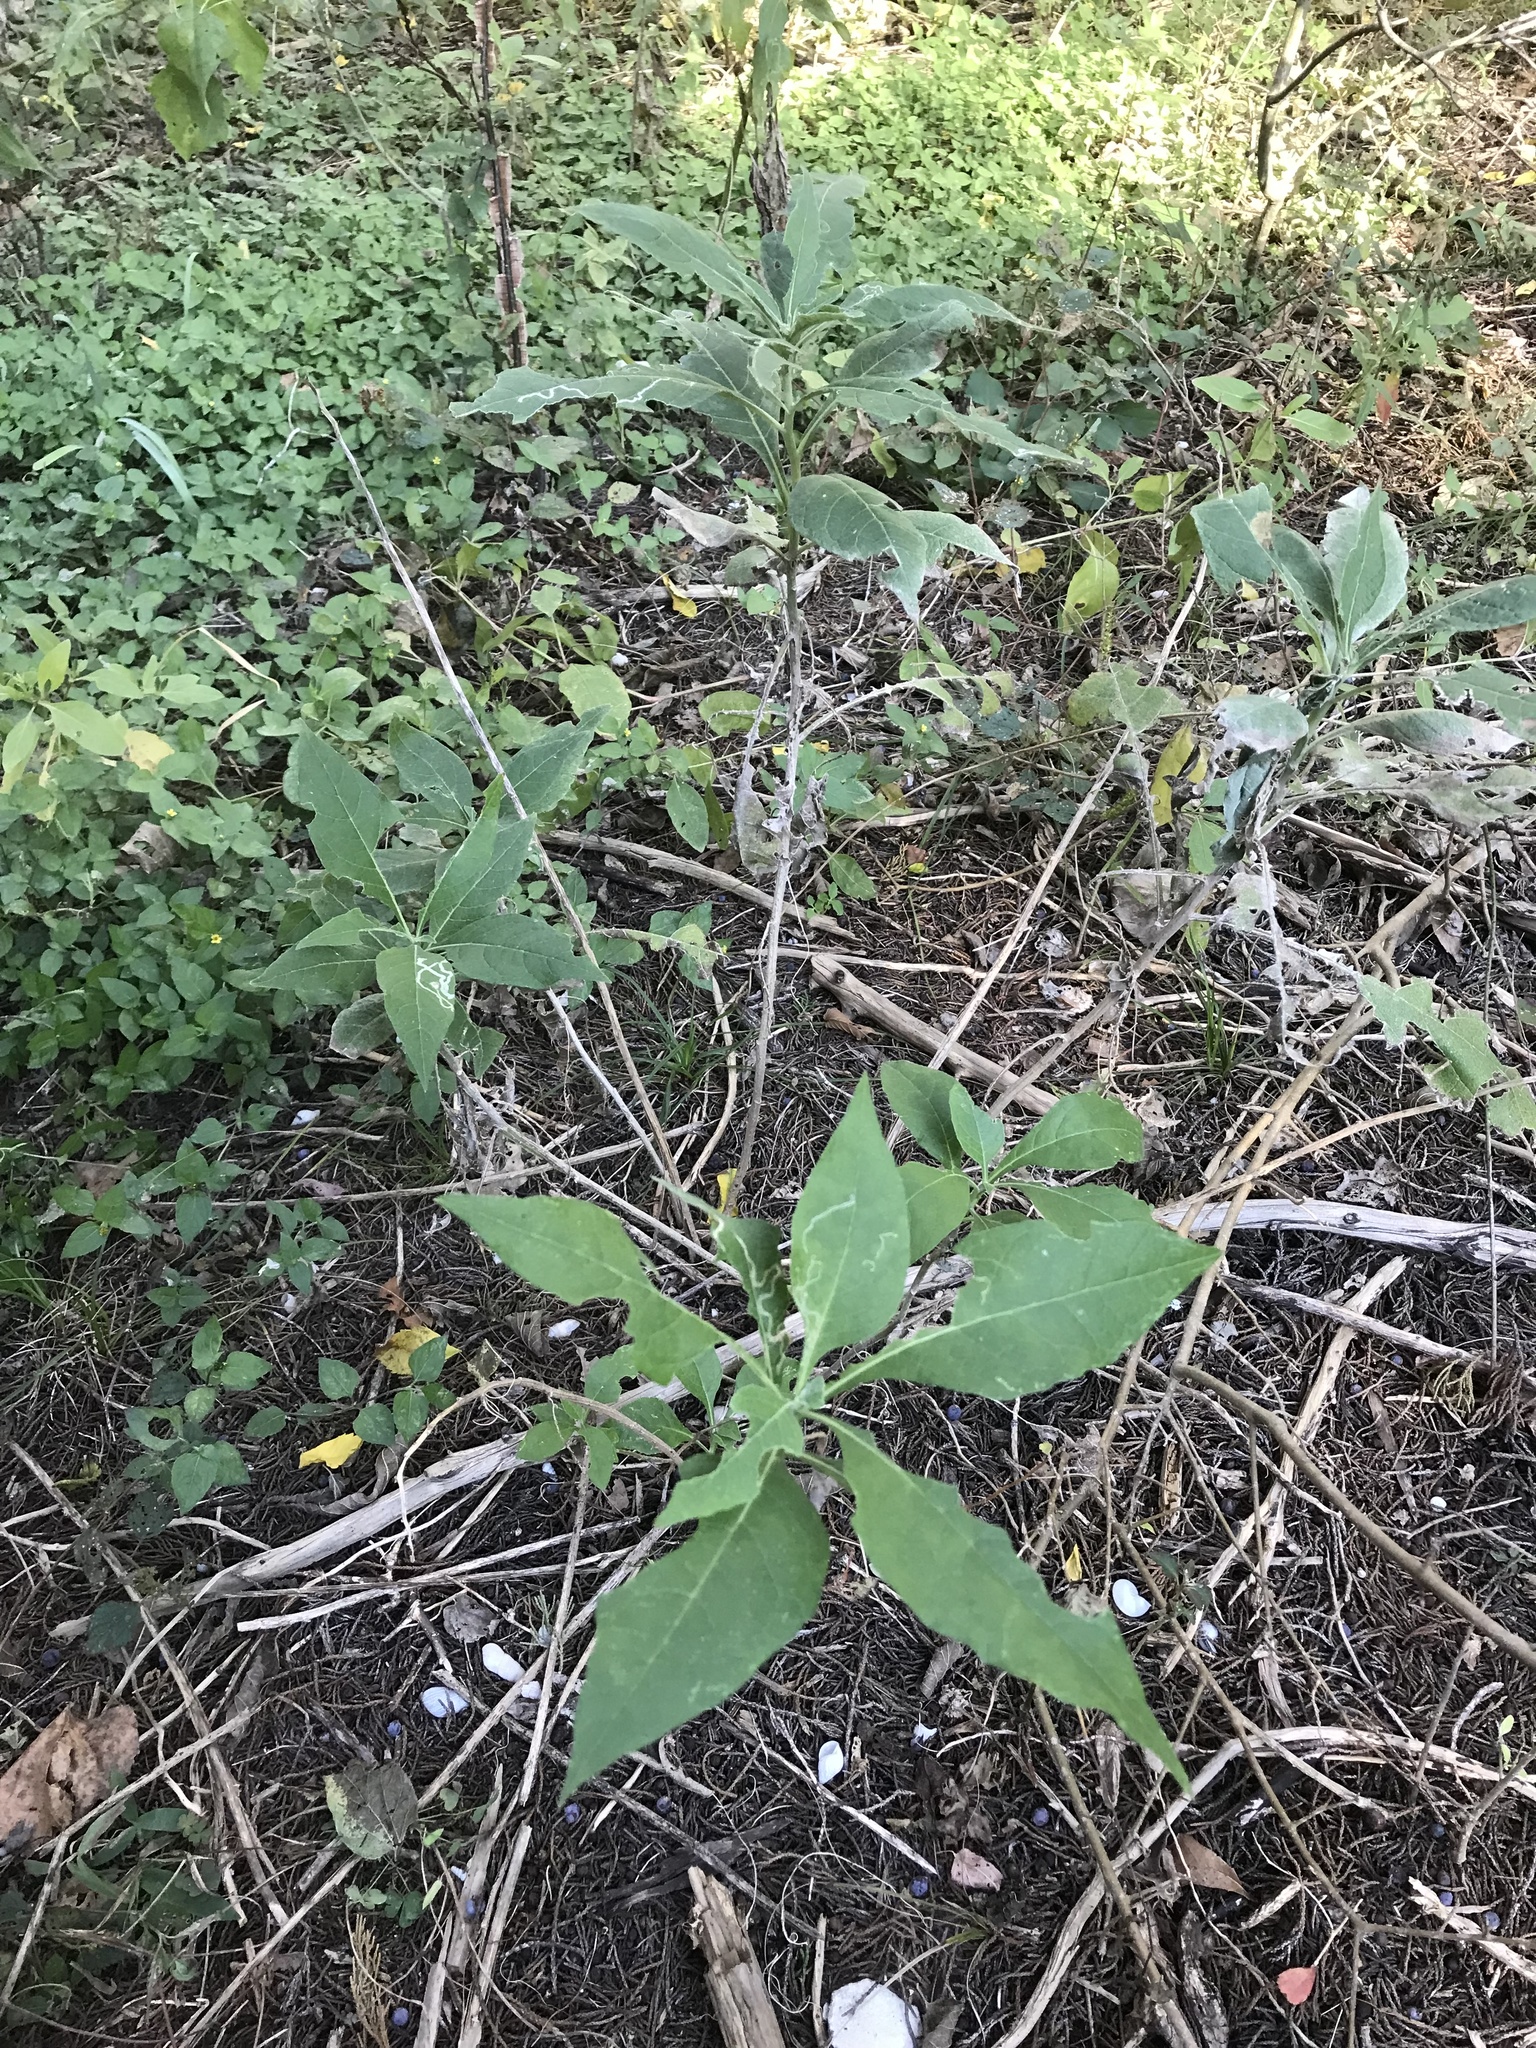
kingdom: Plantae
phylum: Tracheophyta
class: Magnoliopsida
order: Asterales
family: Asteraceae
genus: Verbesina
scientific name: Verbesina virginica
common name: Frostweed
